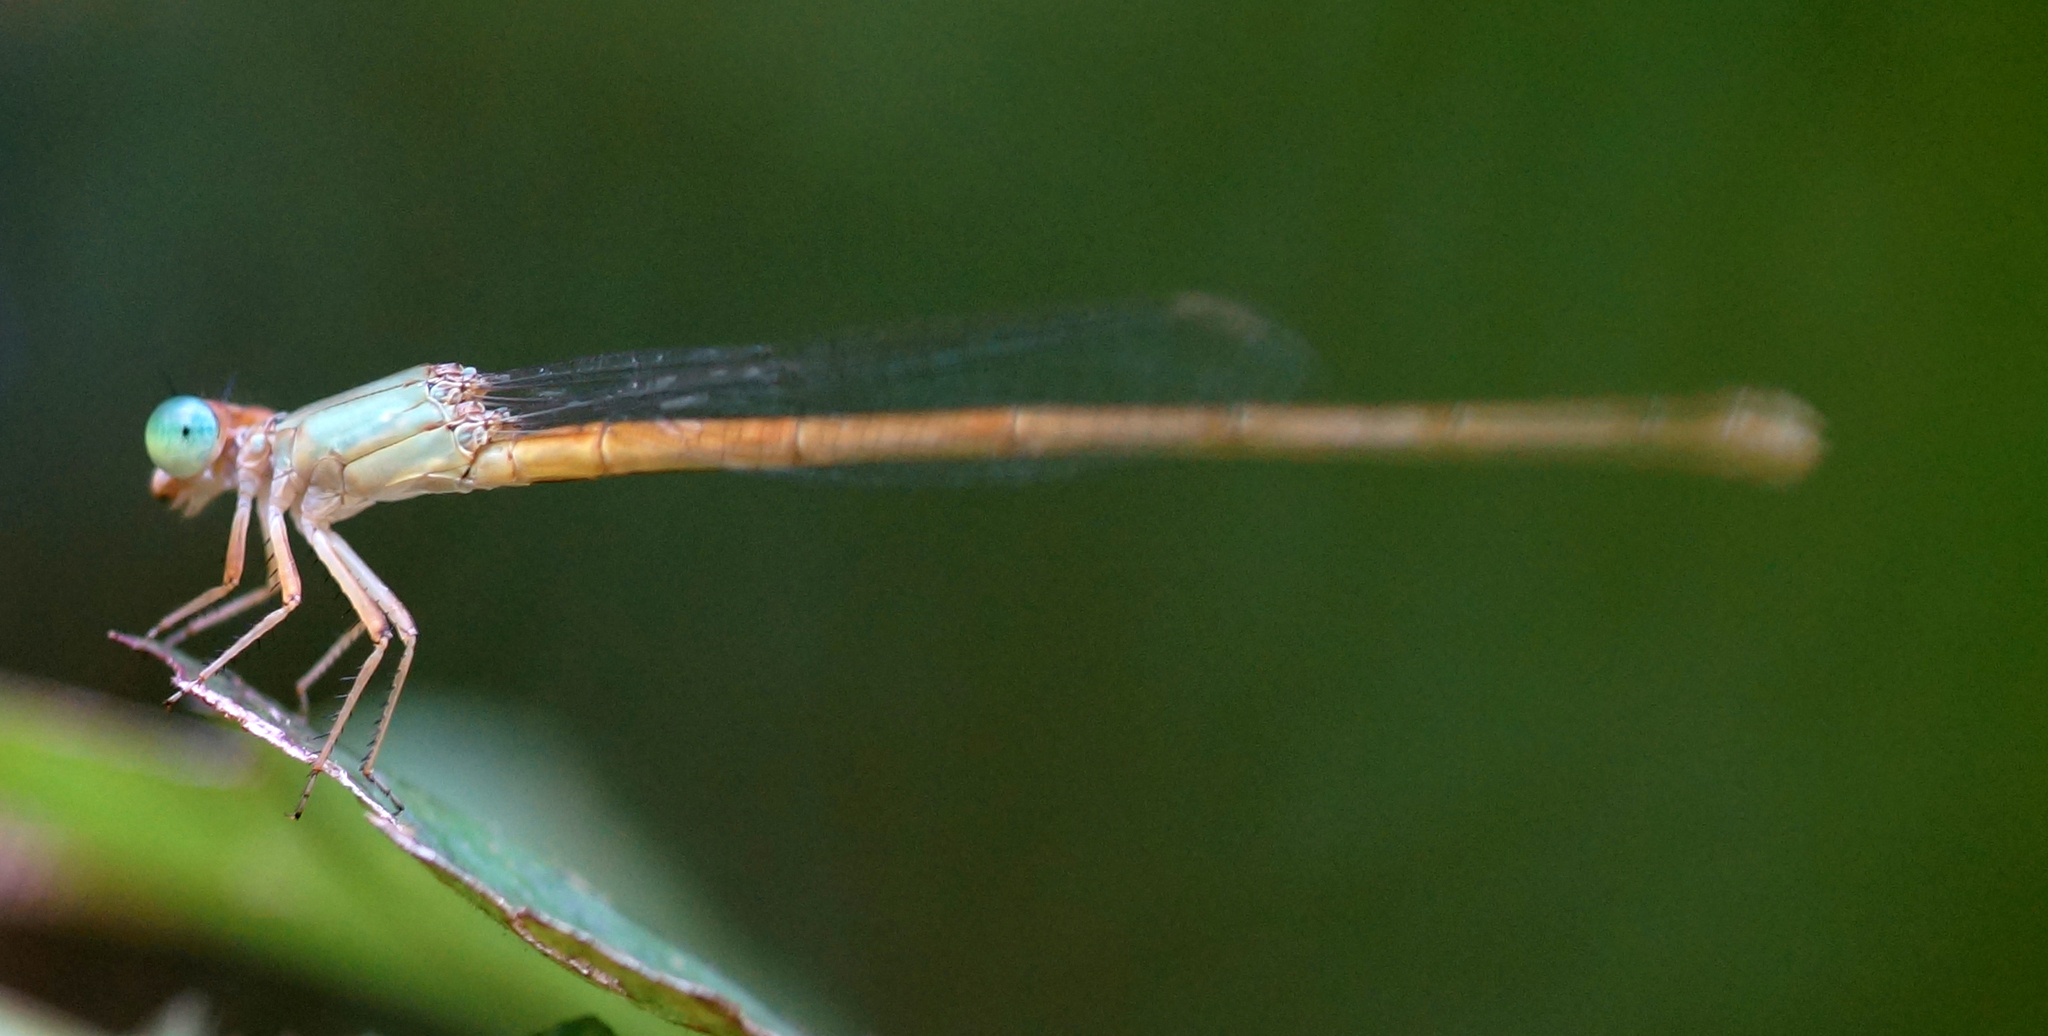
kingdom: Animalia
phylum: Arthropoda
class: Insecta
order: Odonata
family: Coenagrionidae
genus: Ceriagrion
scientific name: Ceriagrion olivaceum
